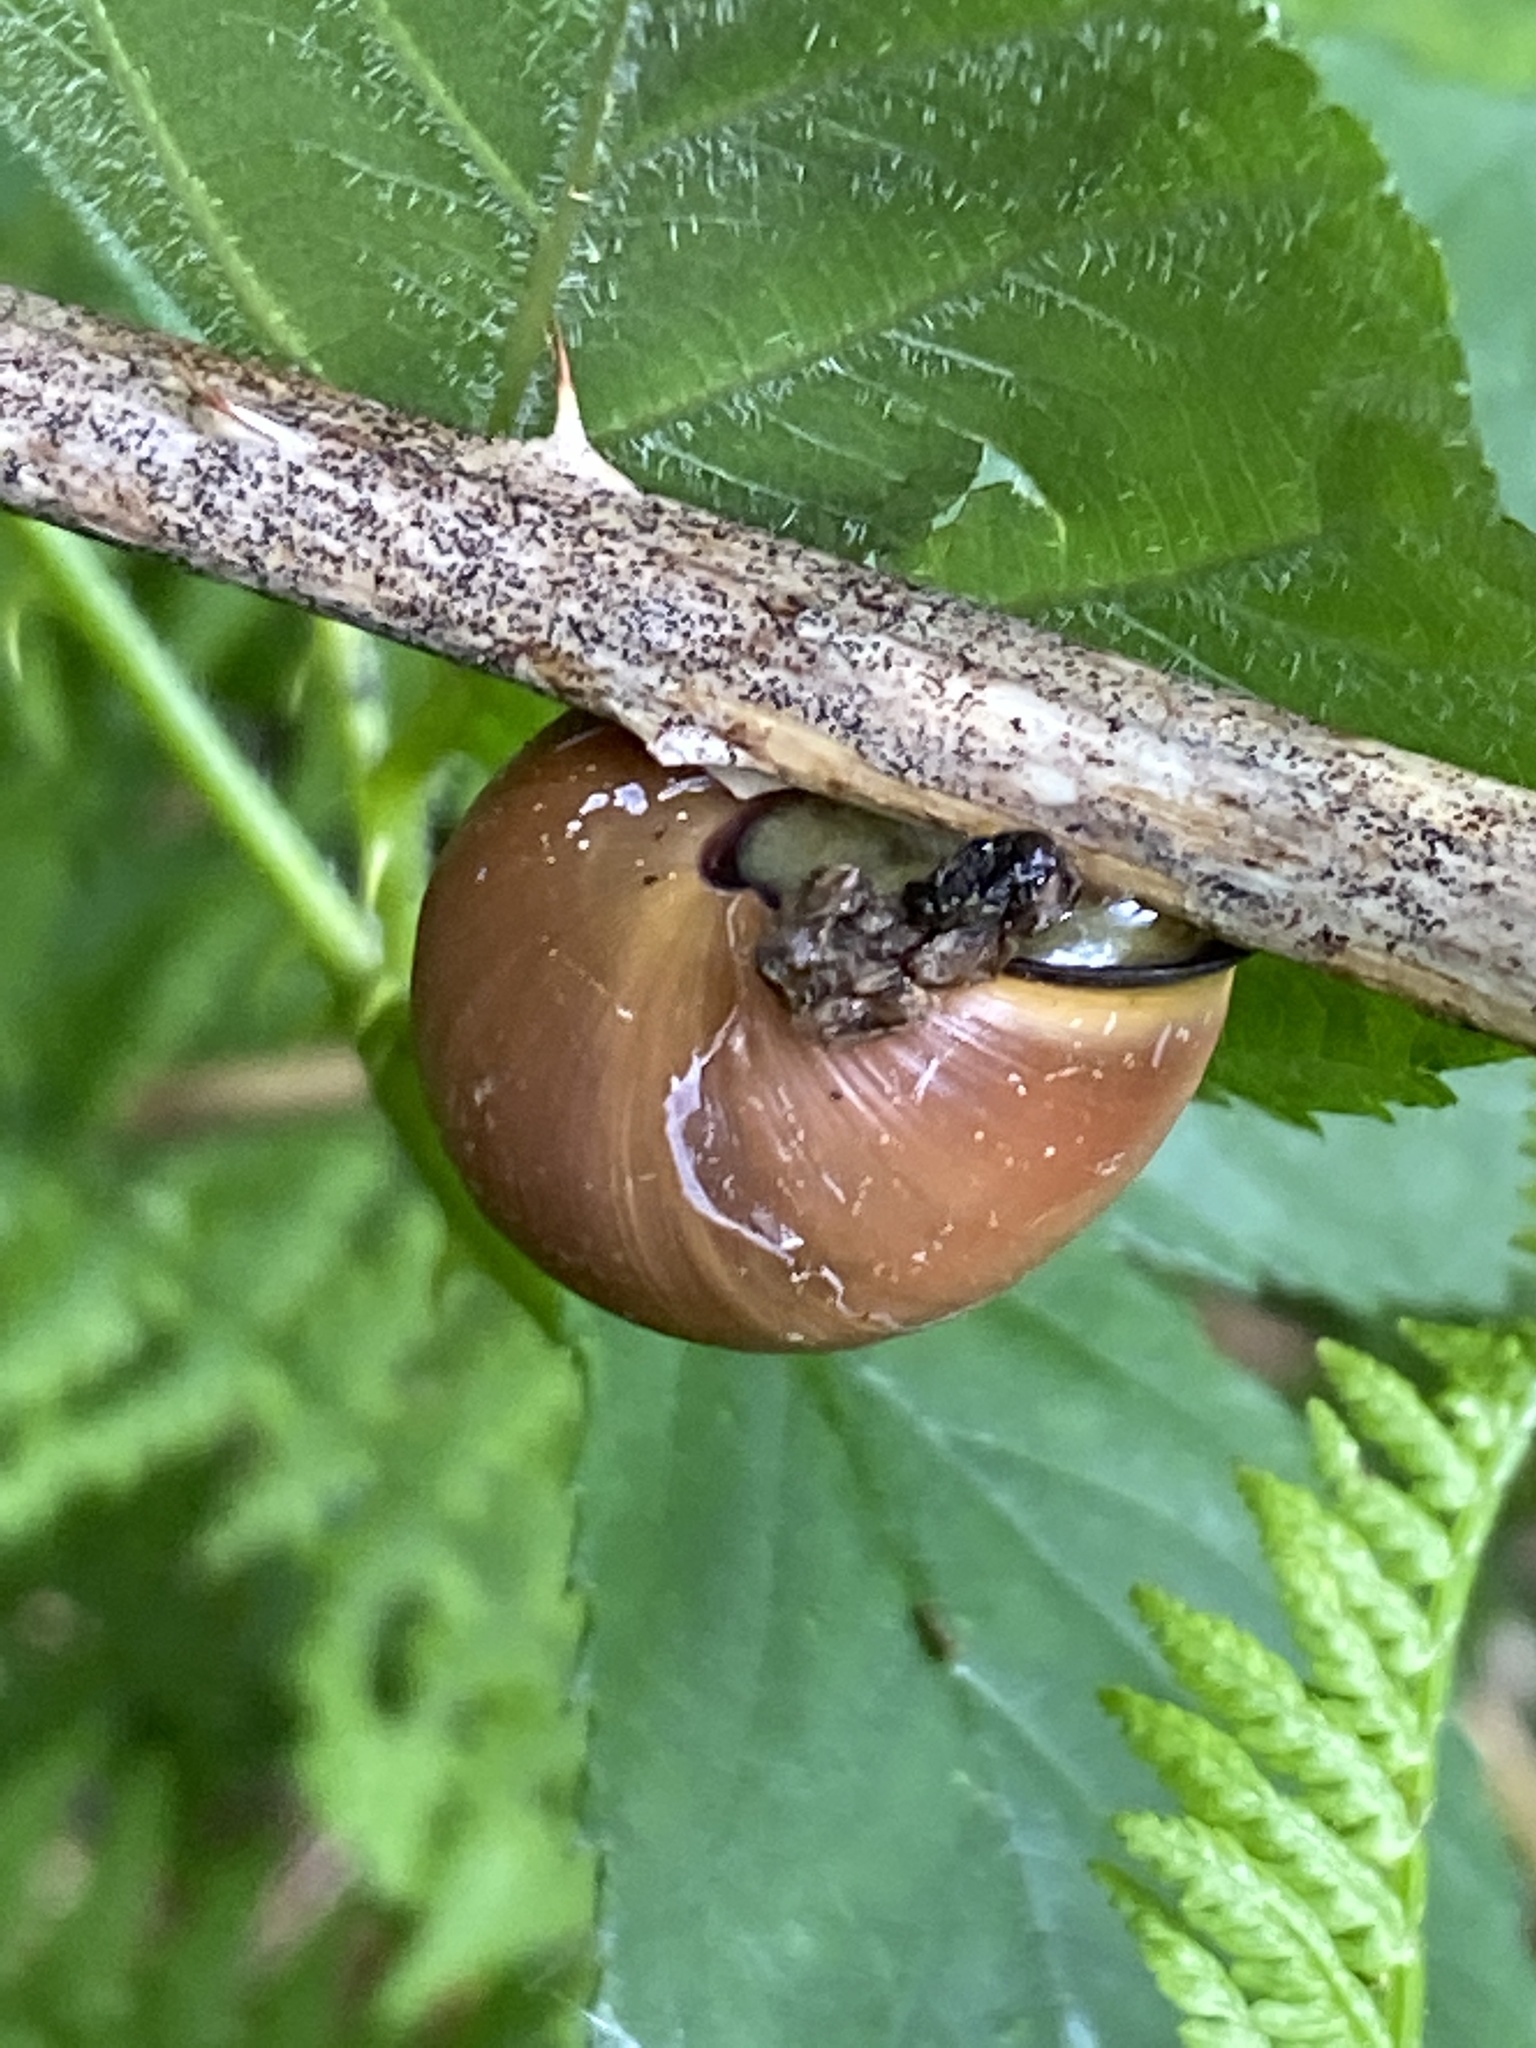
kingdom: Animalia
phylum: Mollusca
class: Gastropoda
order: Stylommatophora
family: Helicidae
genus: Cepaea
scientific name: Cepaea nemoralis
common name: Grovesnail
